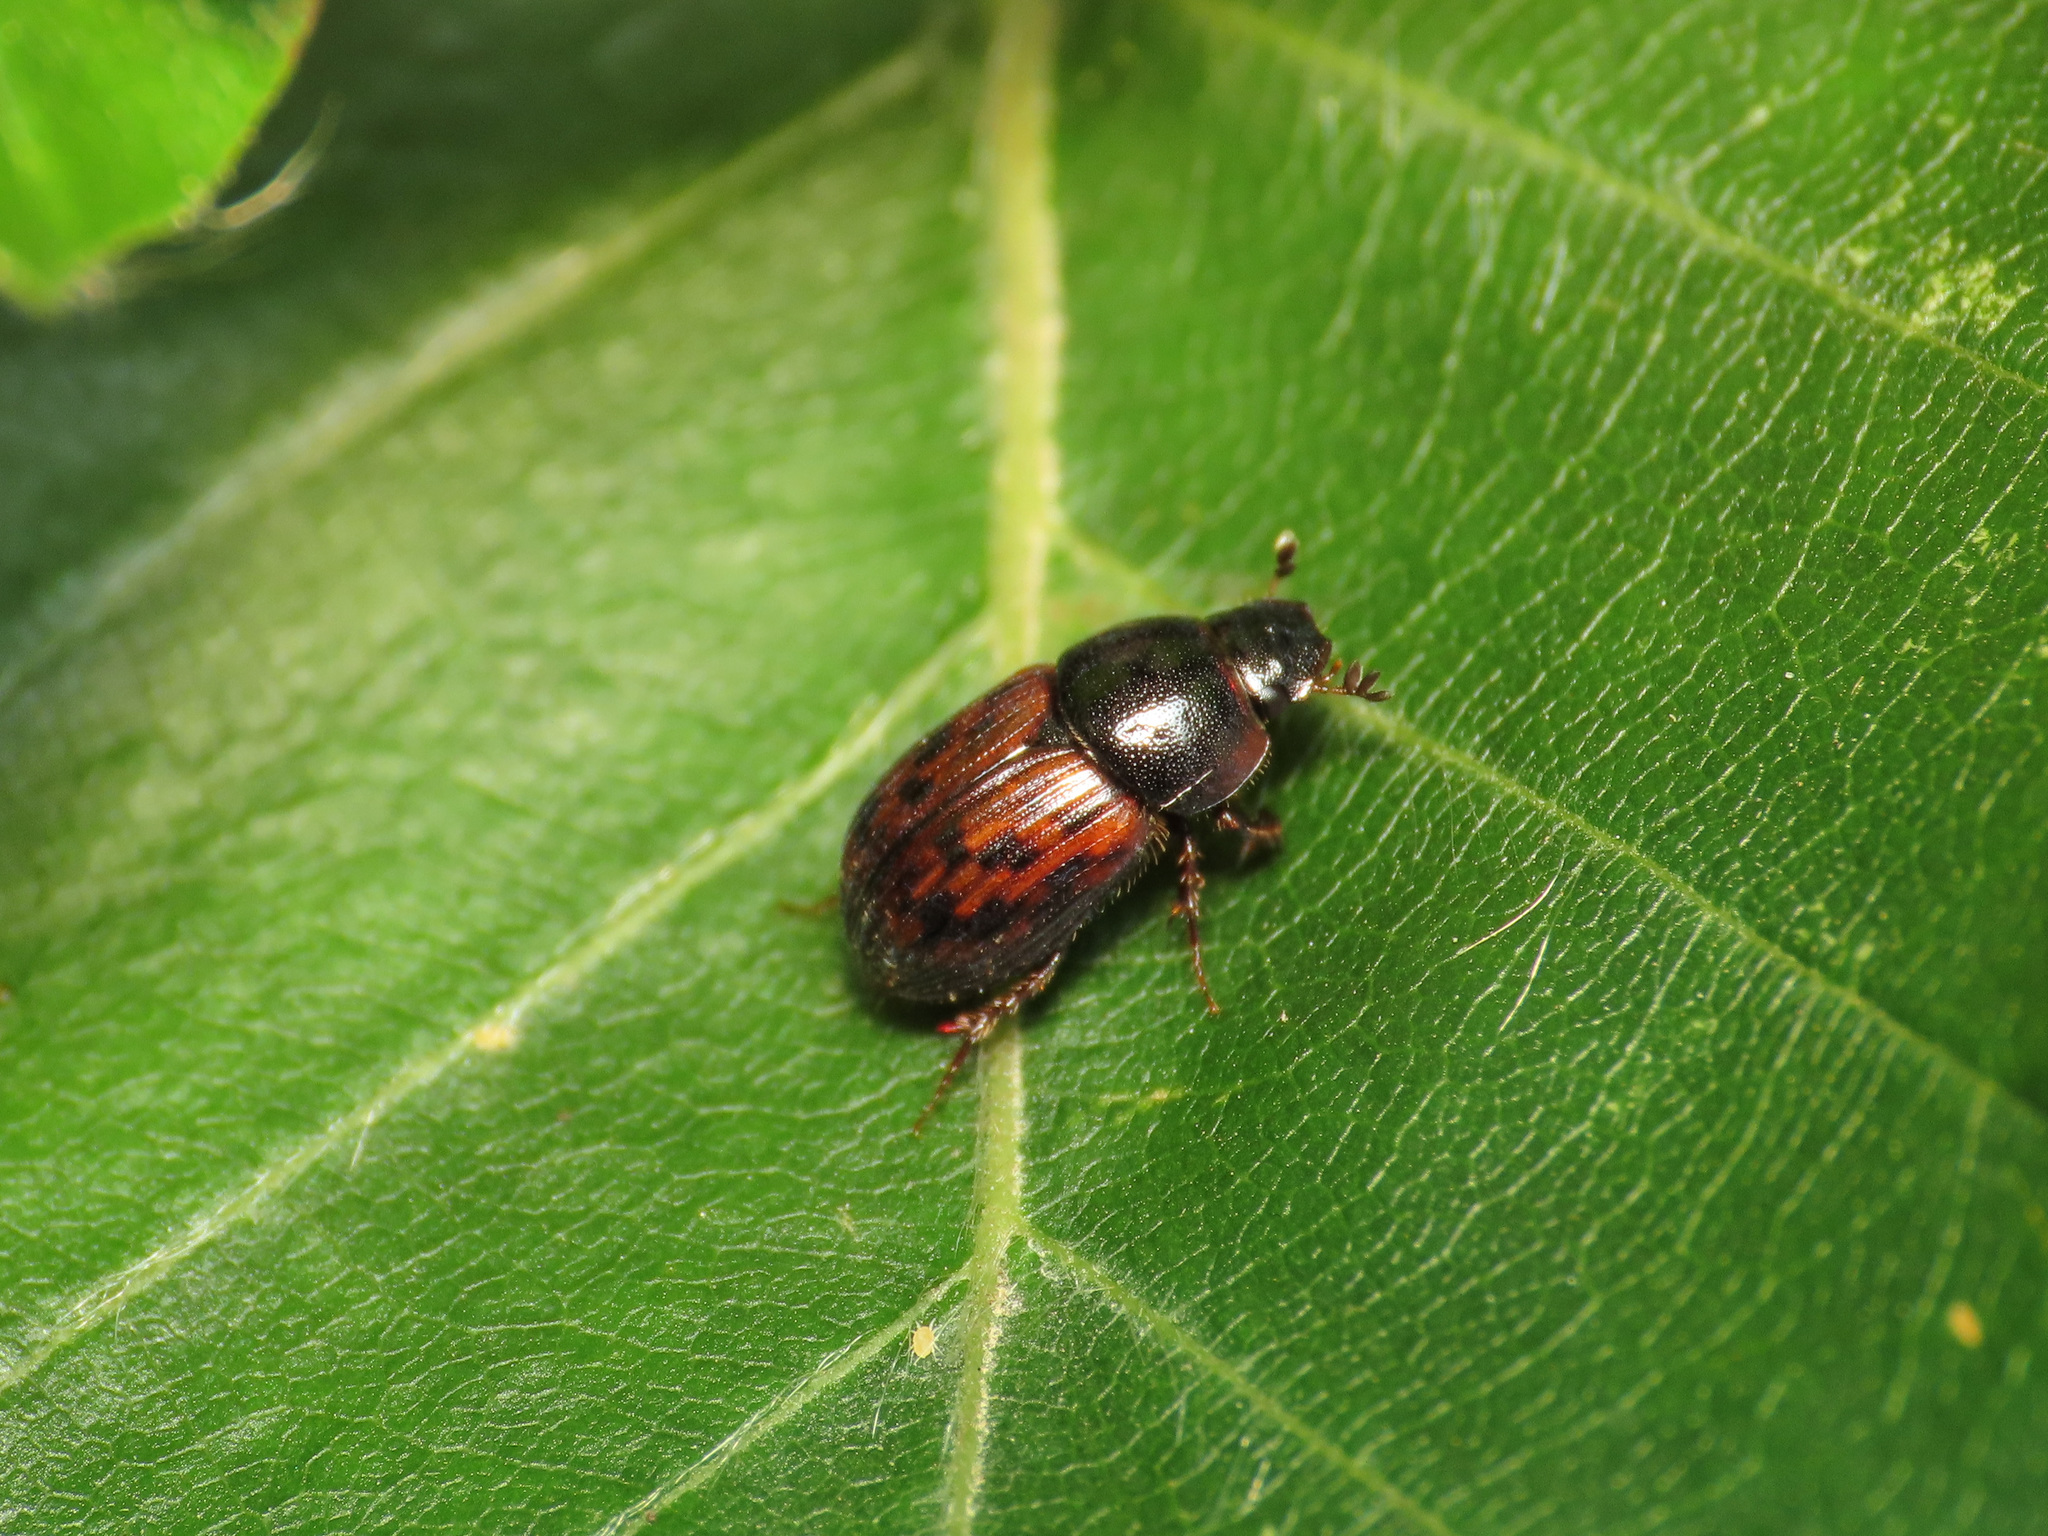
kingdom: Animalia
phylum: Arthropoda
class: Insecta
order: Coleoptera
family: Scarabaeidae
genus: Limarus
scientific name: Limarus zenkeri
